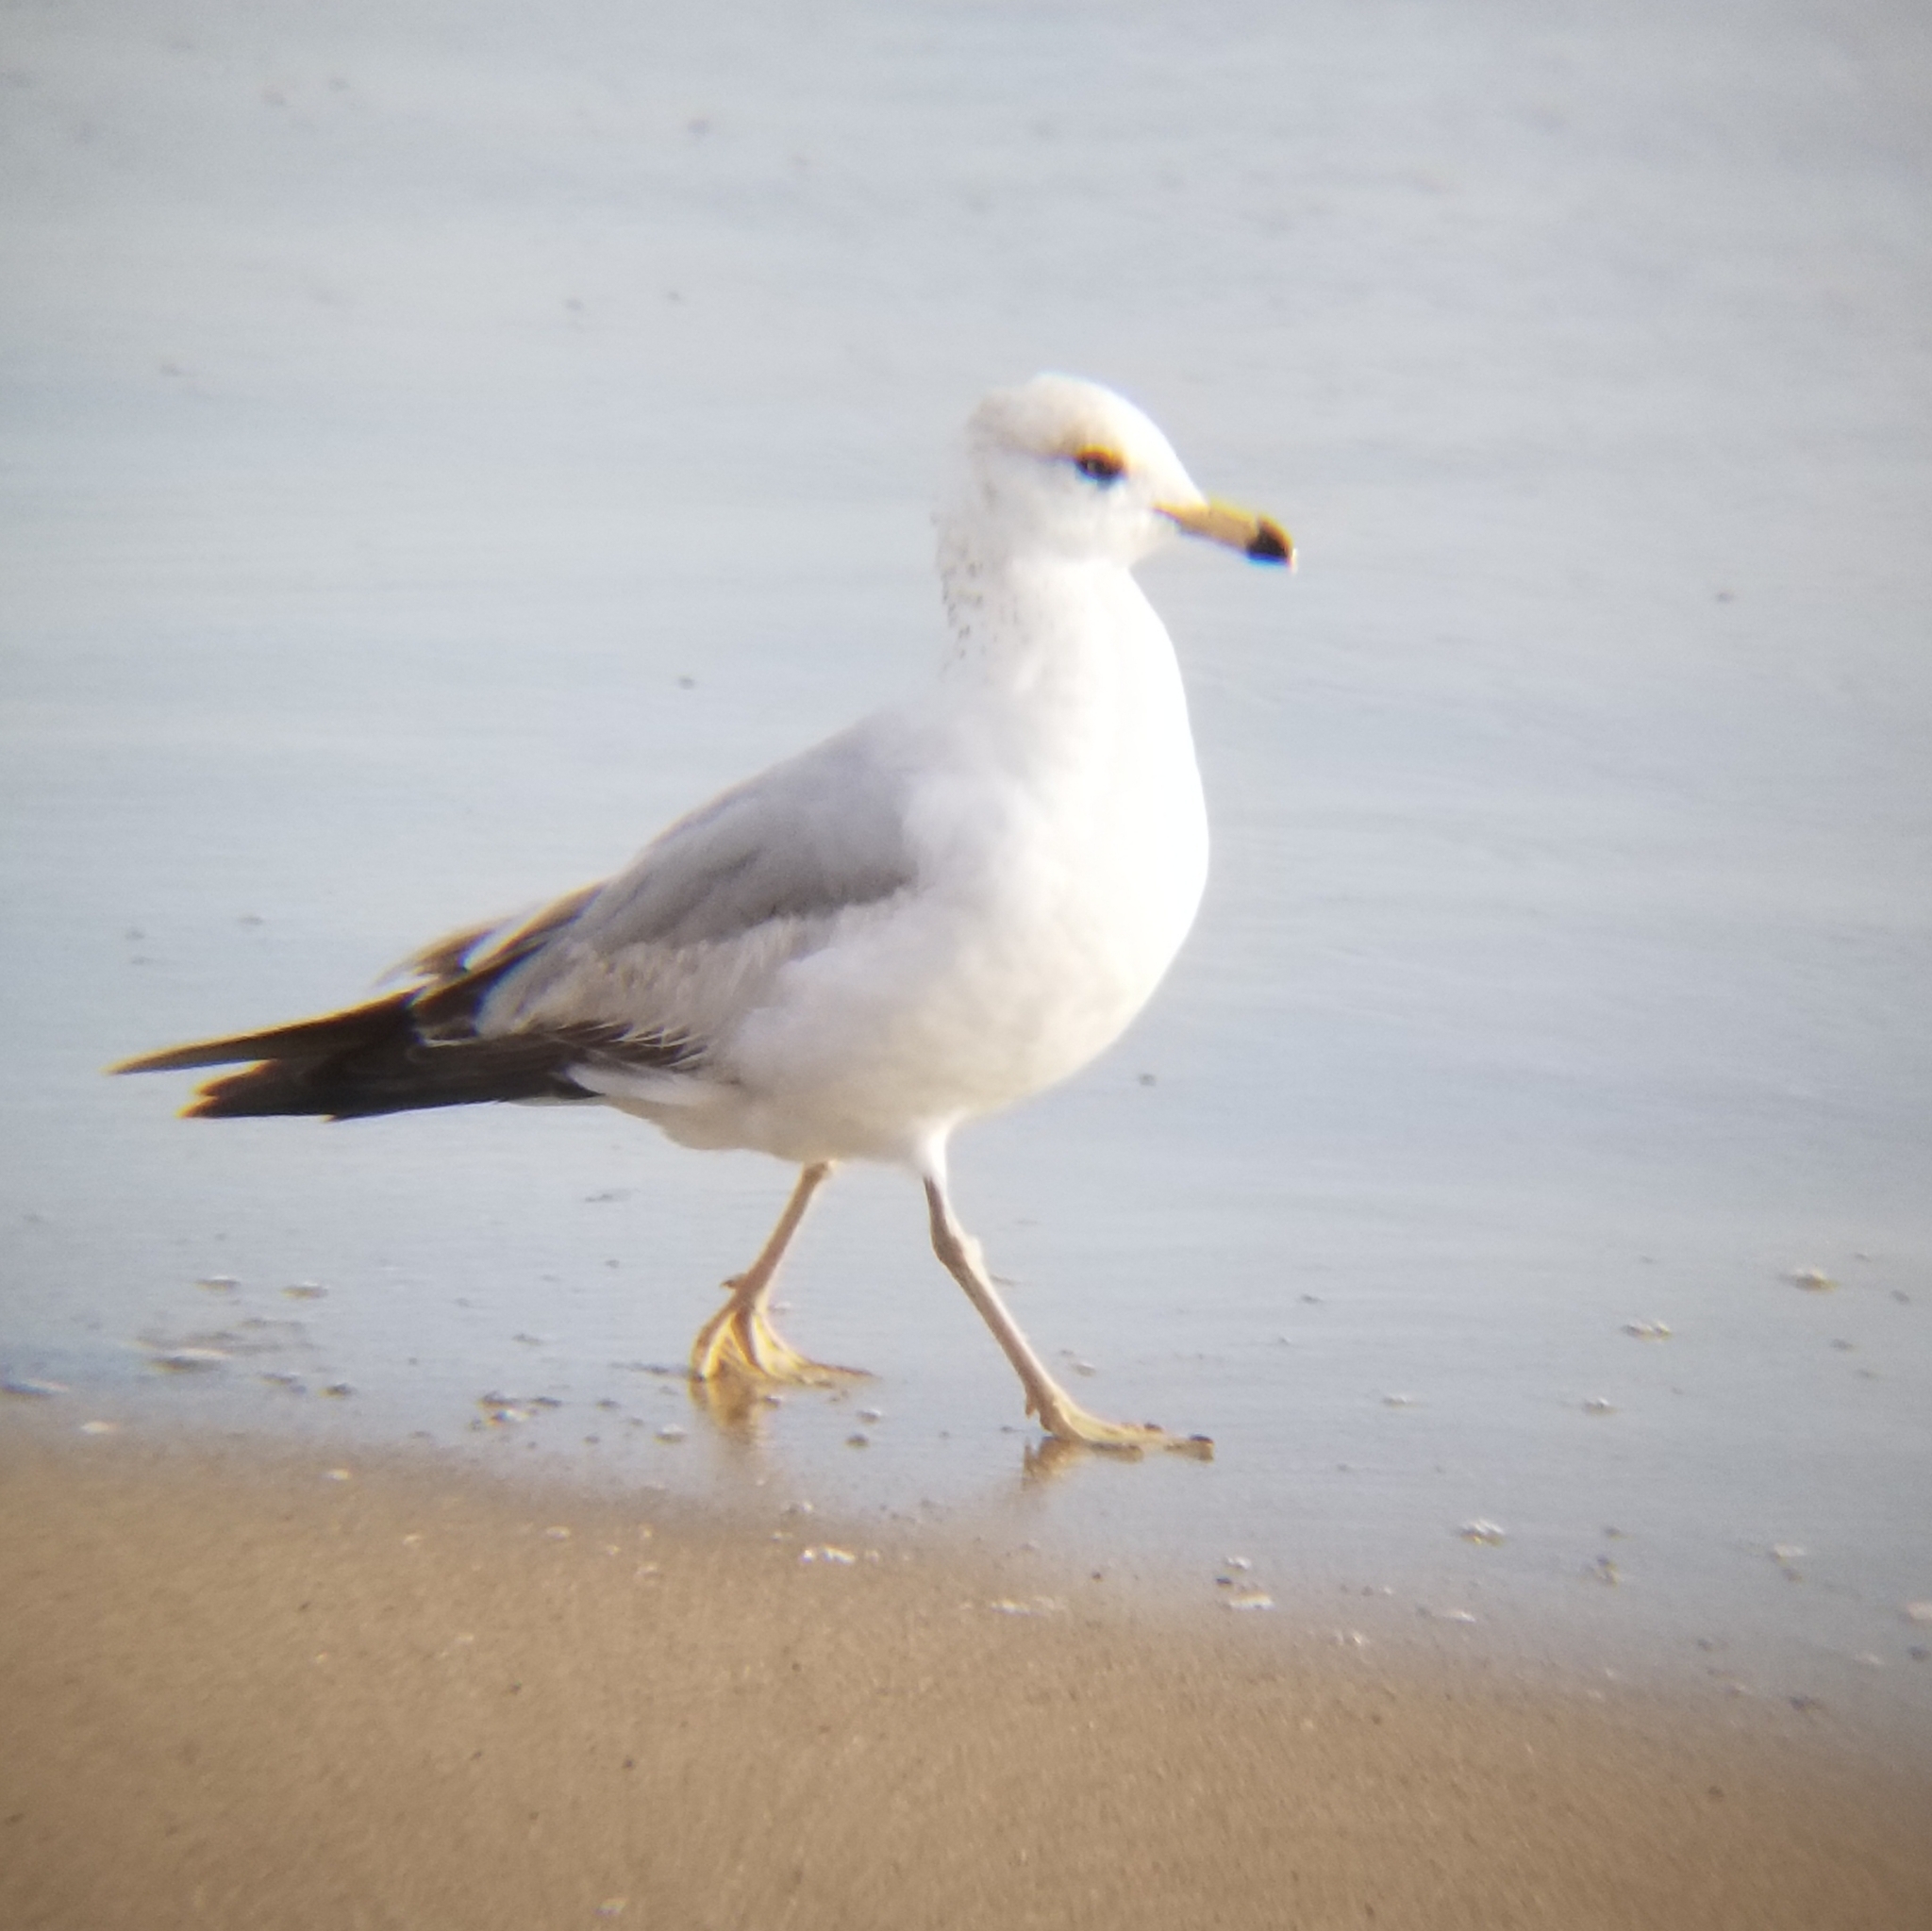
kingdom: Animalia
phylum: Chordata
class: Aves
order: Charadriiformes
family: Laridae
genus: Larus
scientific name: Larus delawarensis
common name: Ring-billed gull
